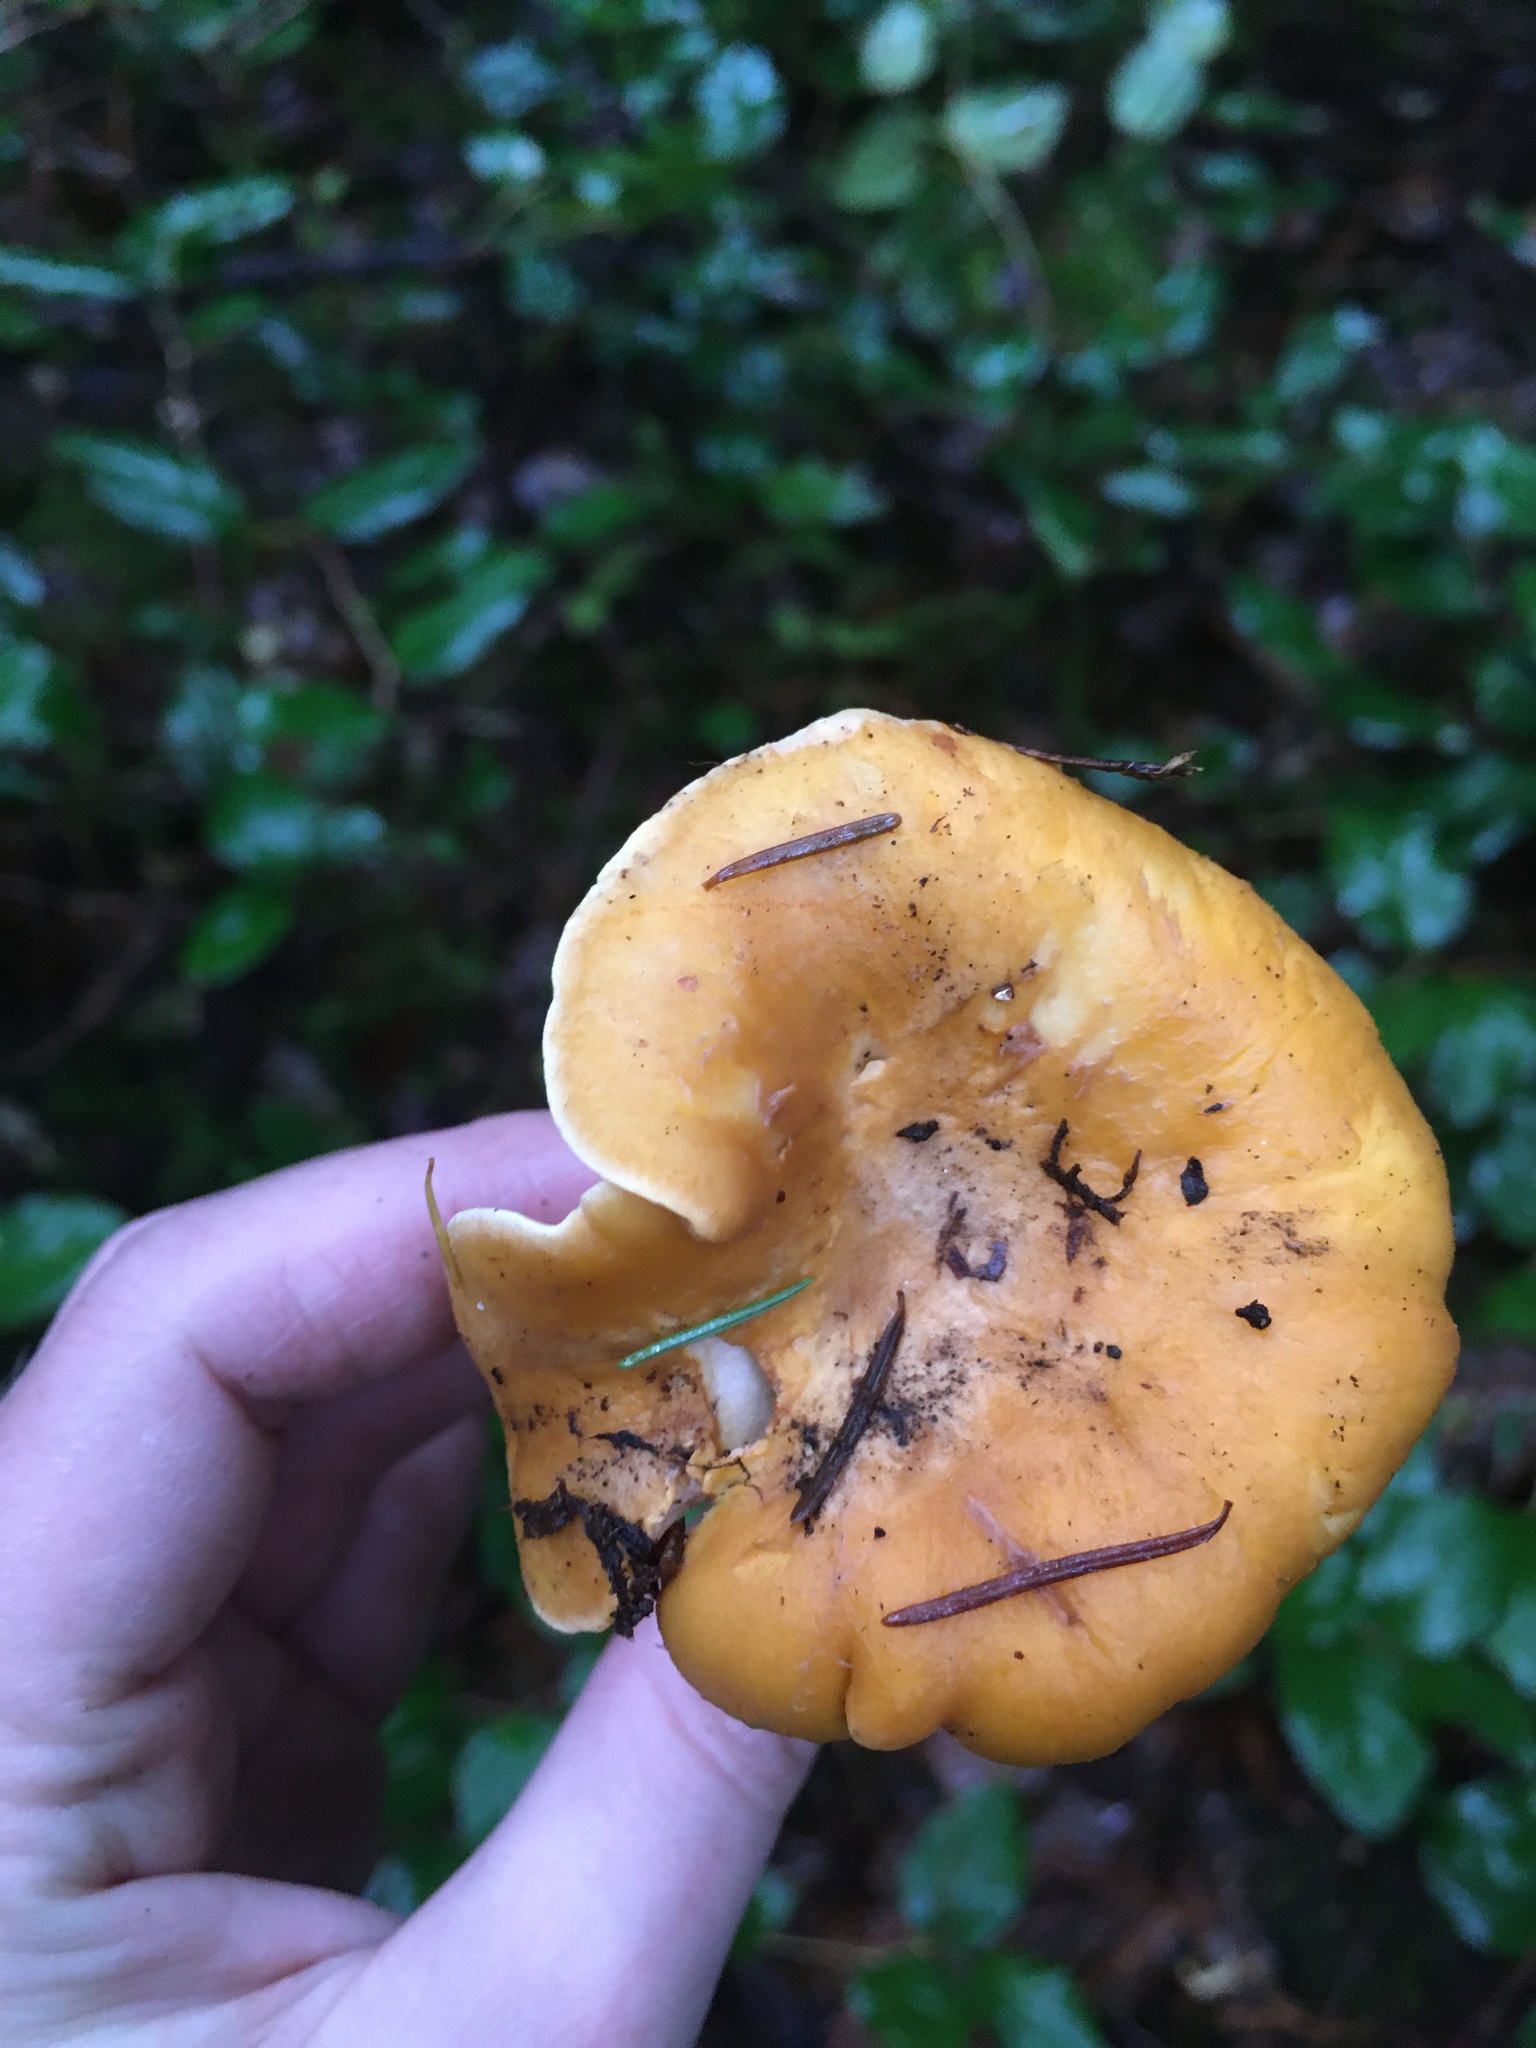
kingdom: Fungi
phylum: Basidiomycota
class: Agaricomycetes
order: Cantharellales
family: Hydnaceae
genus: Cantharellus
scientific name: Cantharellus formosus
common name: Pacific golden chanterelle
